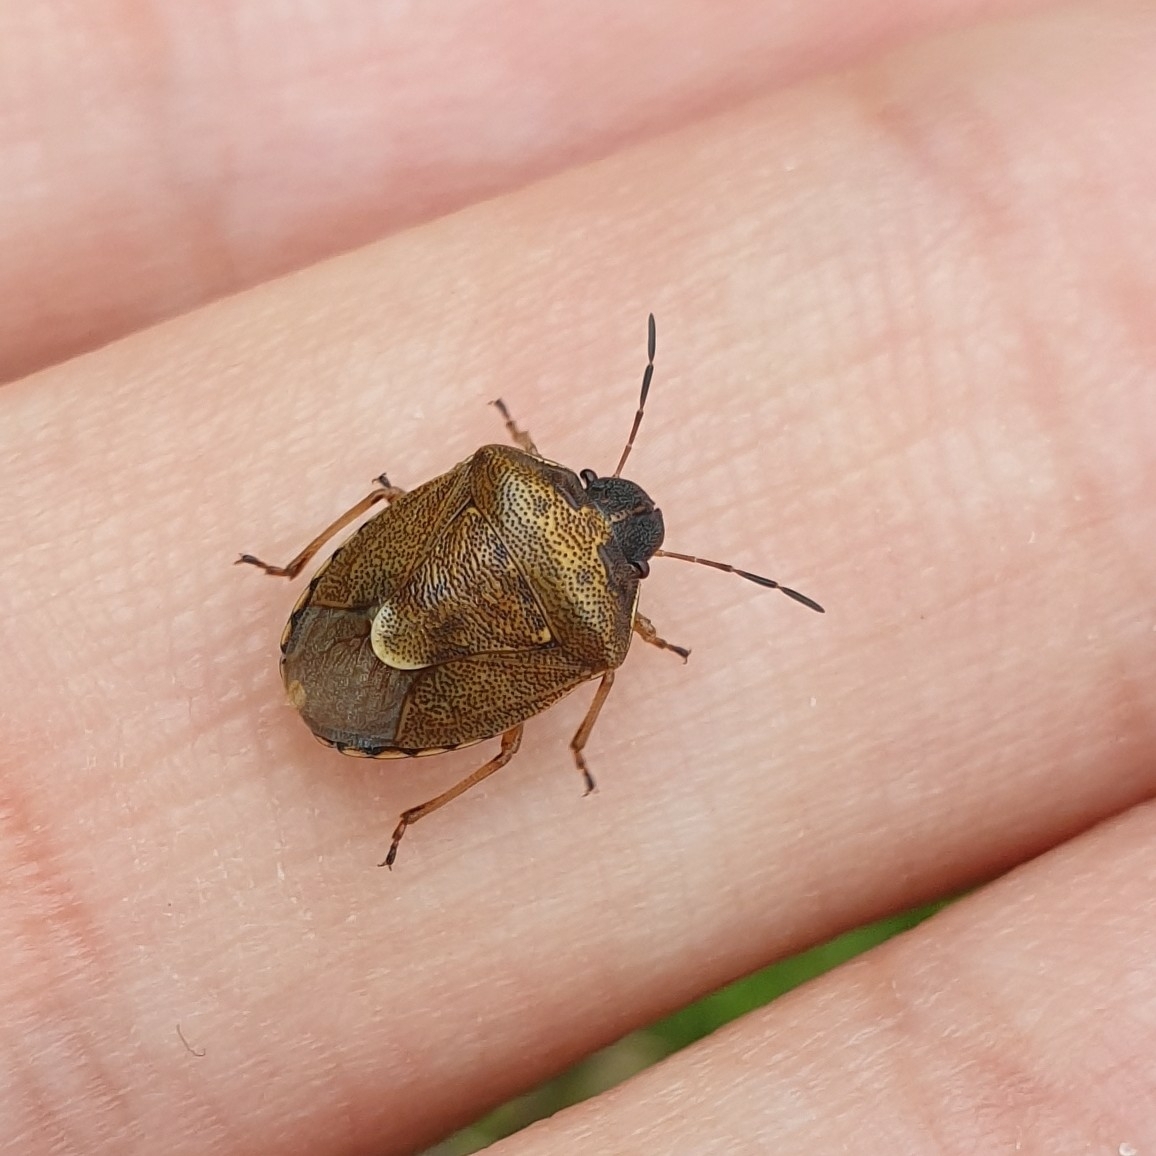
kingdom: Animalia
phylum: Arthropoda
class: Insecta
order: Hemiptera
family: Pentatomidae
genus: Rubiconia
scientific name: Rubiconia intermedia
